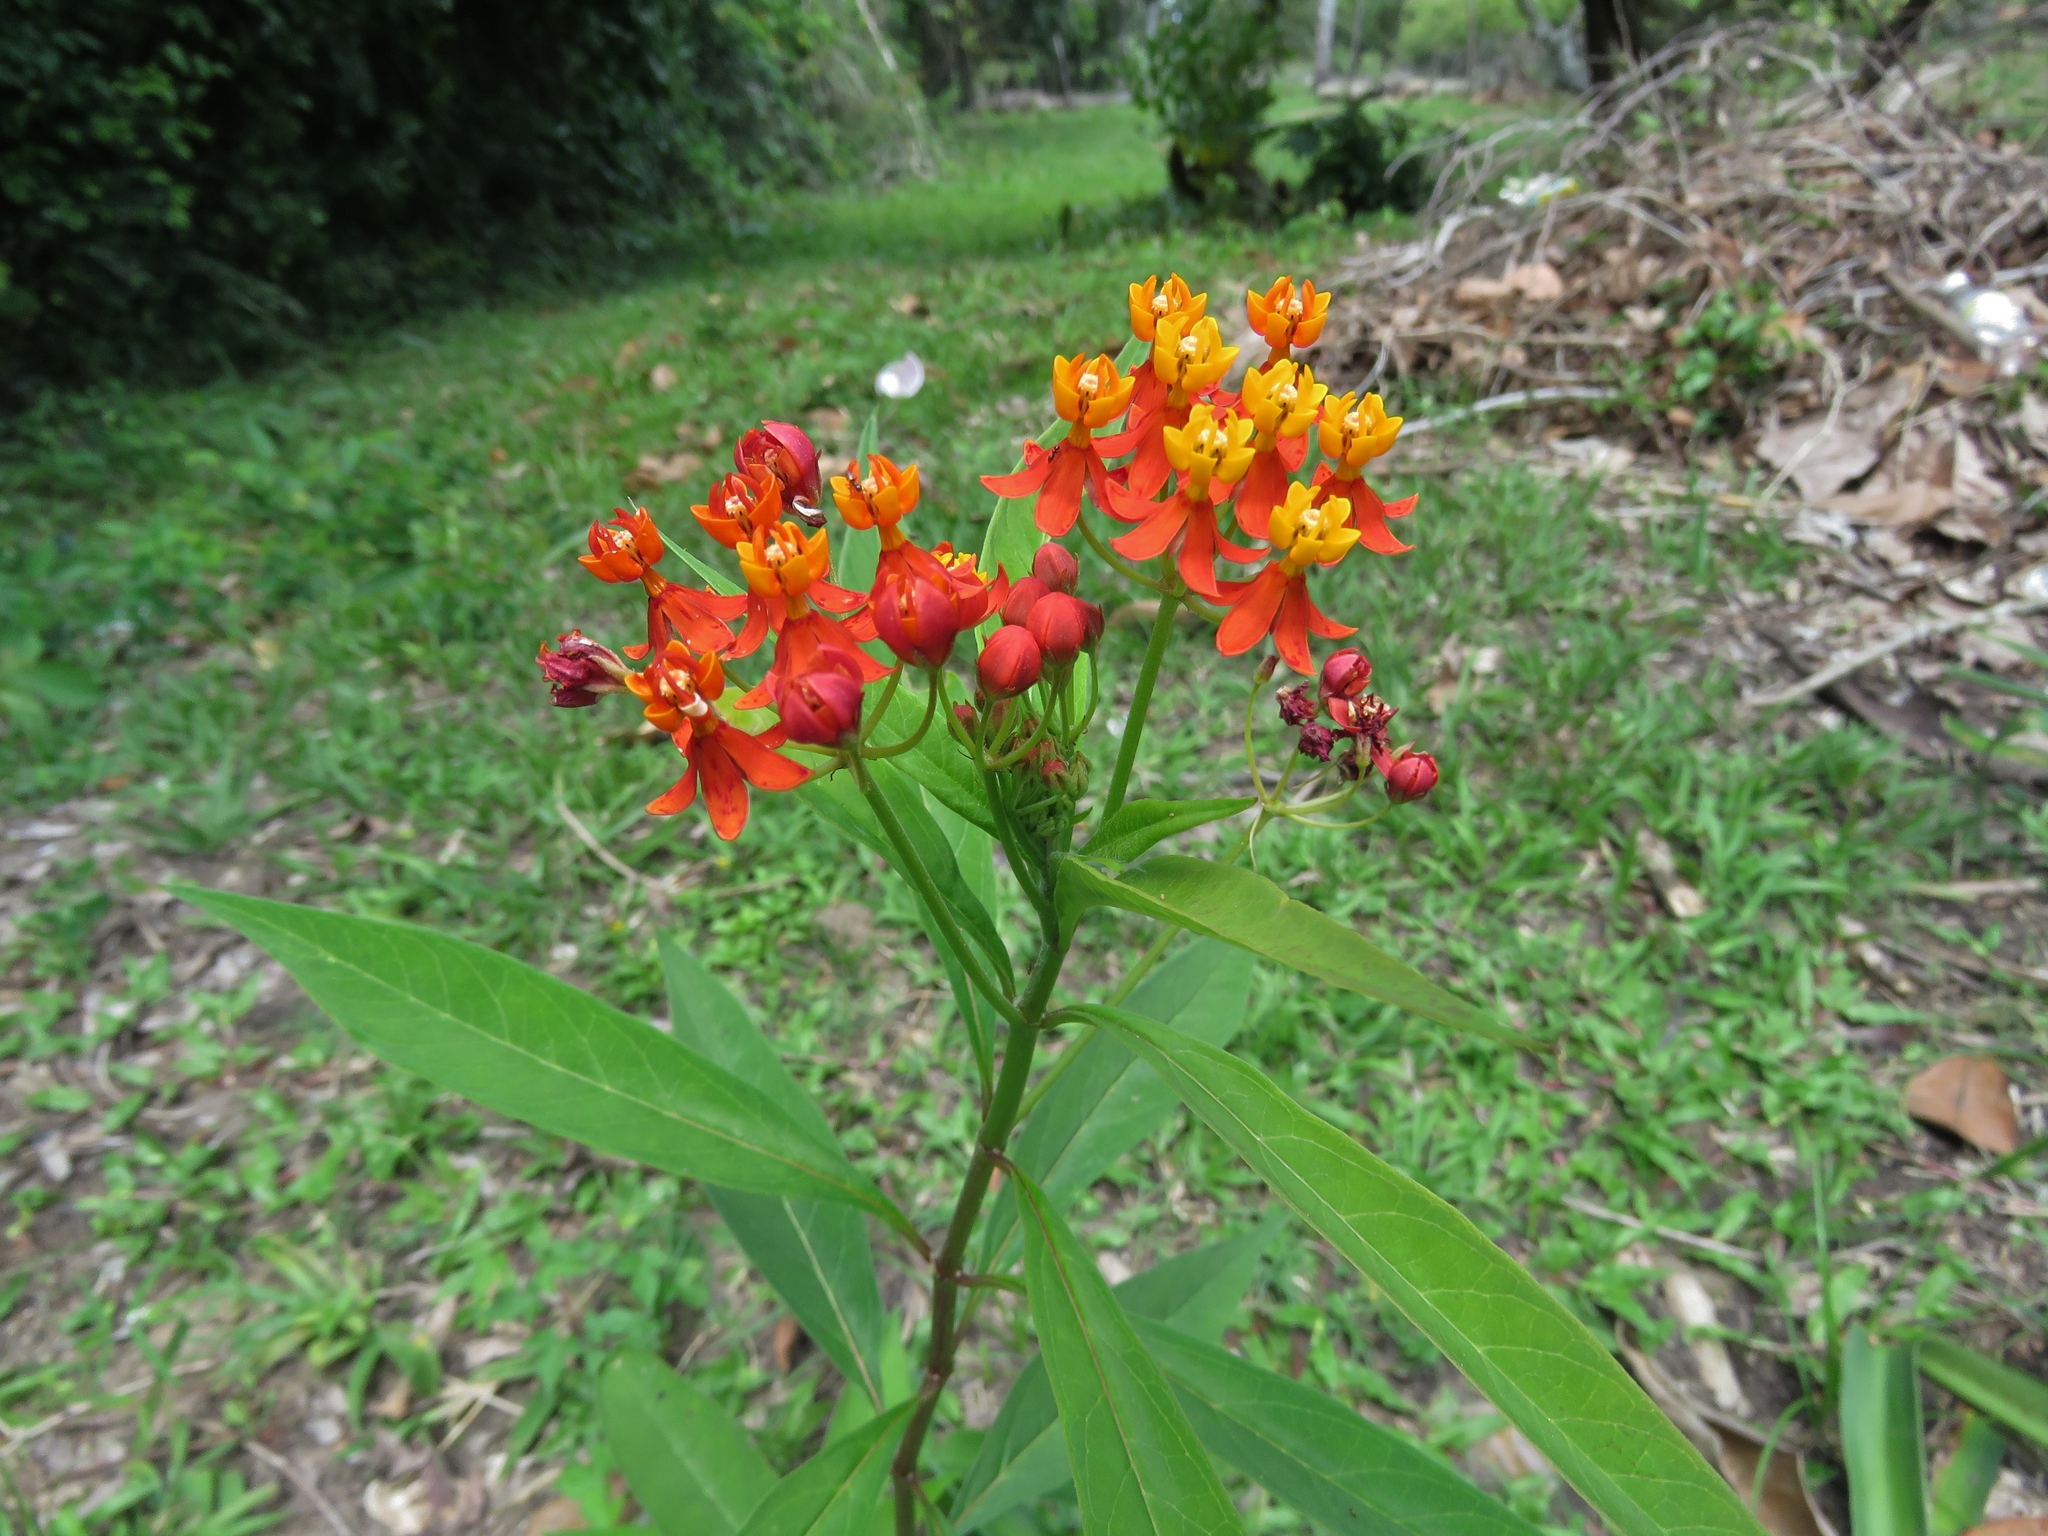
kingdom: Plantae
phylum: Tracheophyta
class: Magnoliopsida
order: Gentianales
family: Apocynaceae
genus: Asclepias
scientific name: Asclepias curassavica
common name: Bloodflower
